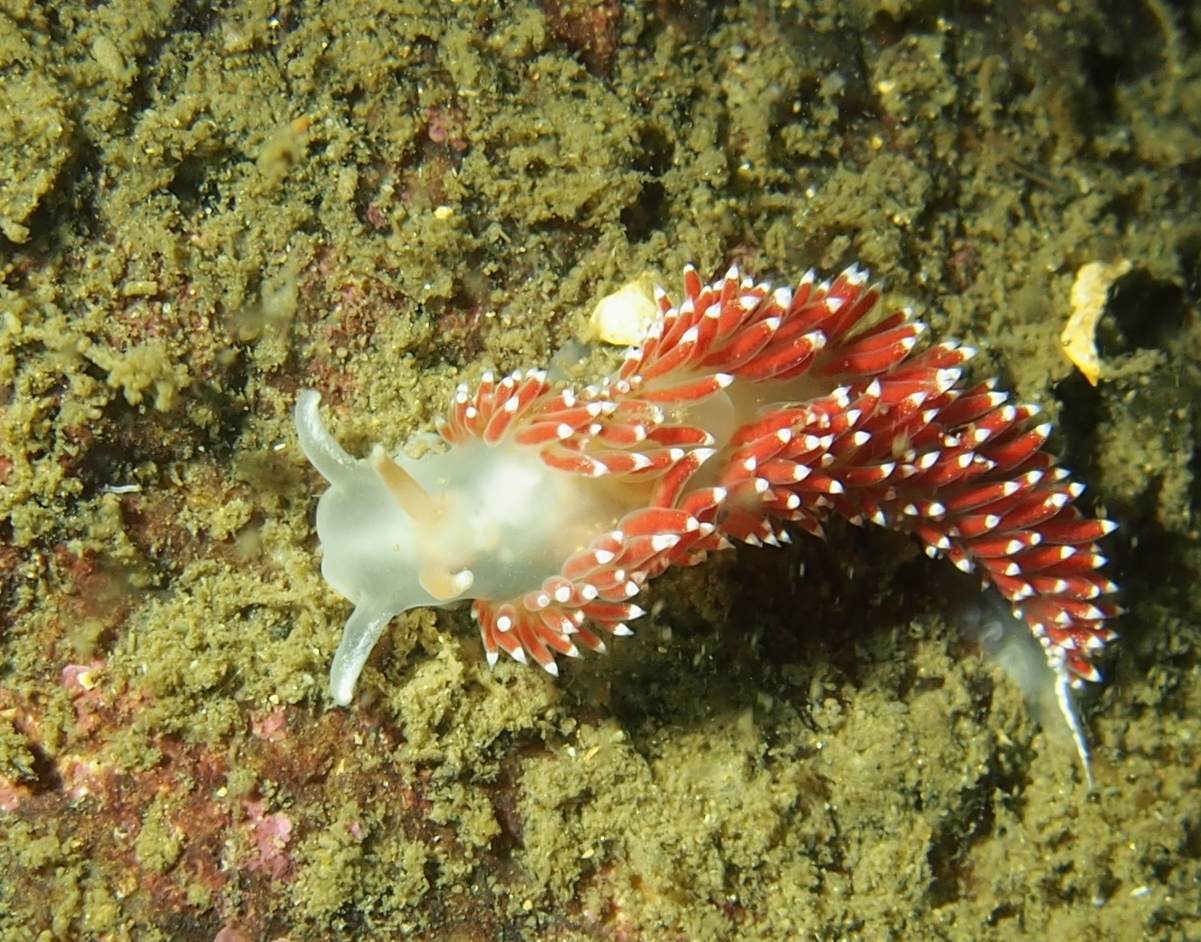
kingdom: Animalia
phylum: Mollusca
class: Gastropoda
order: Nudibranchia
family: Coryphellidae
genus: Coryphella
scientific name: Coryphella verrucosa
